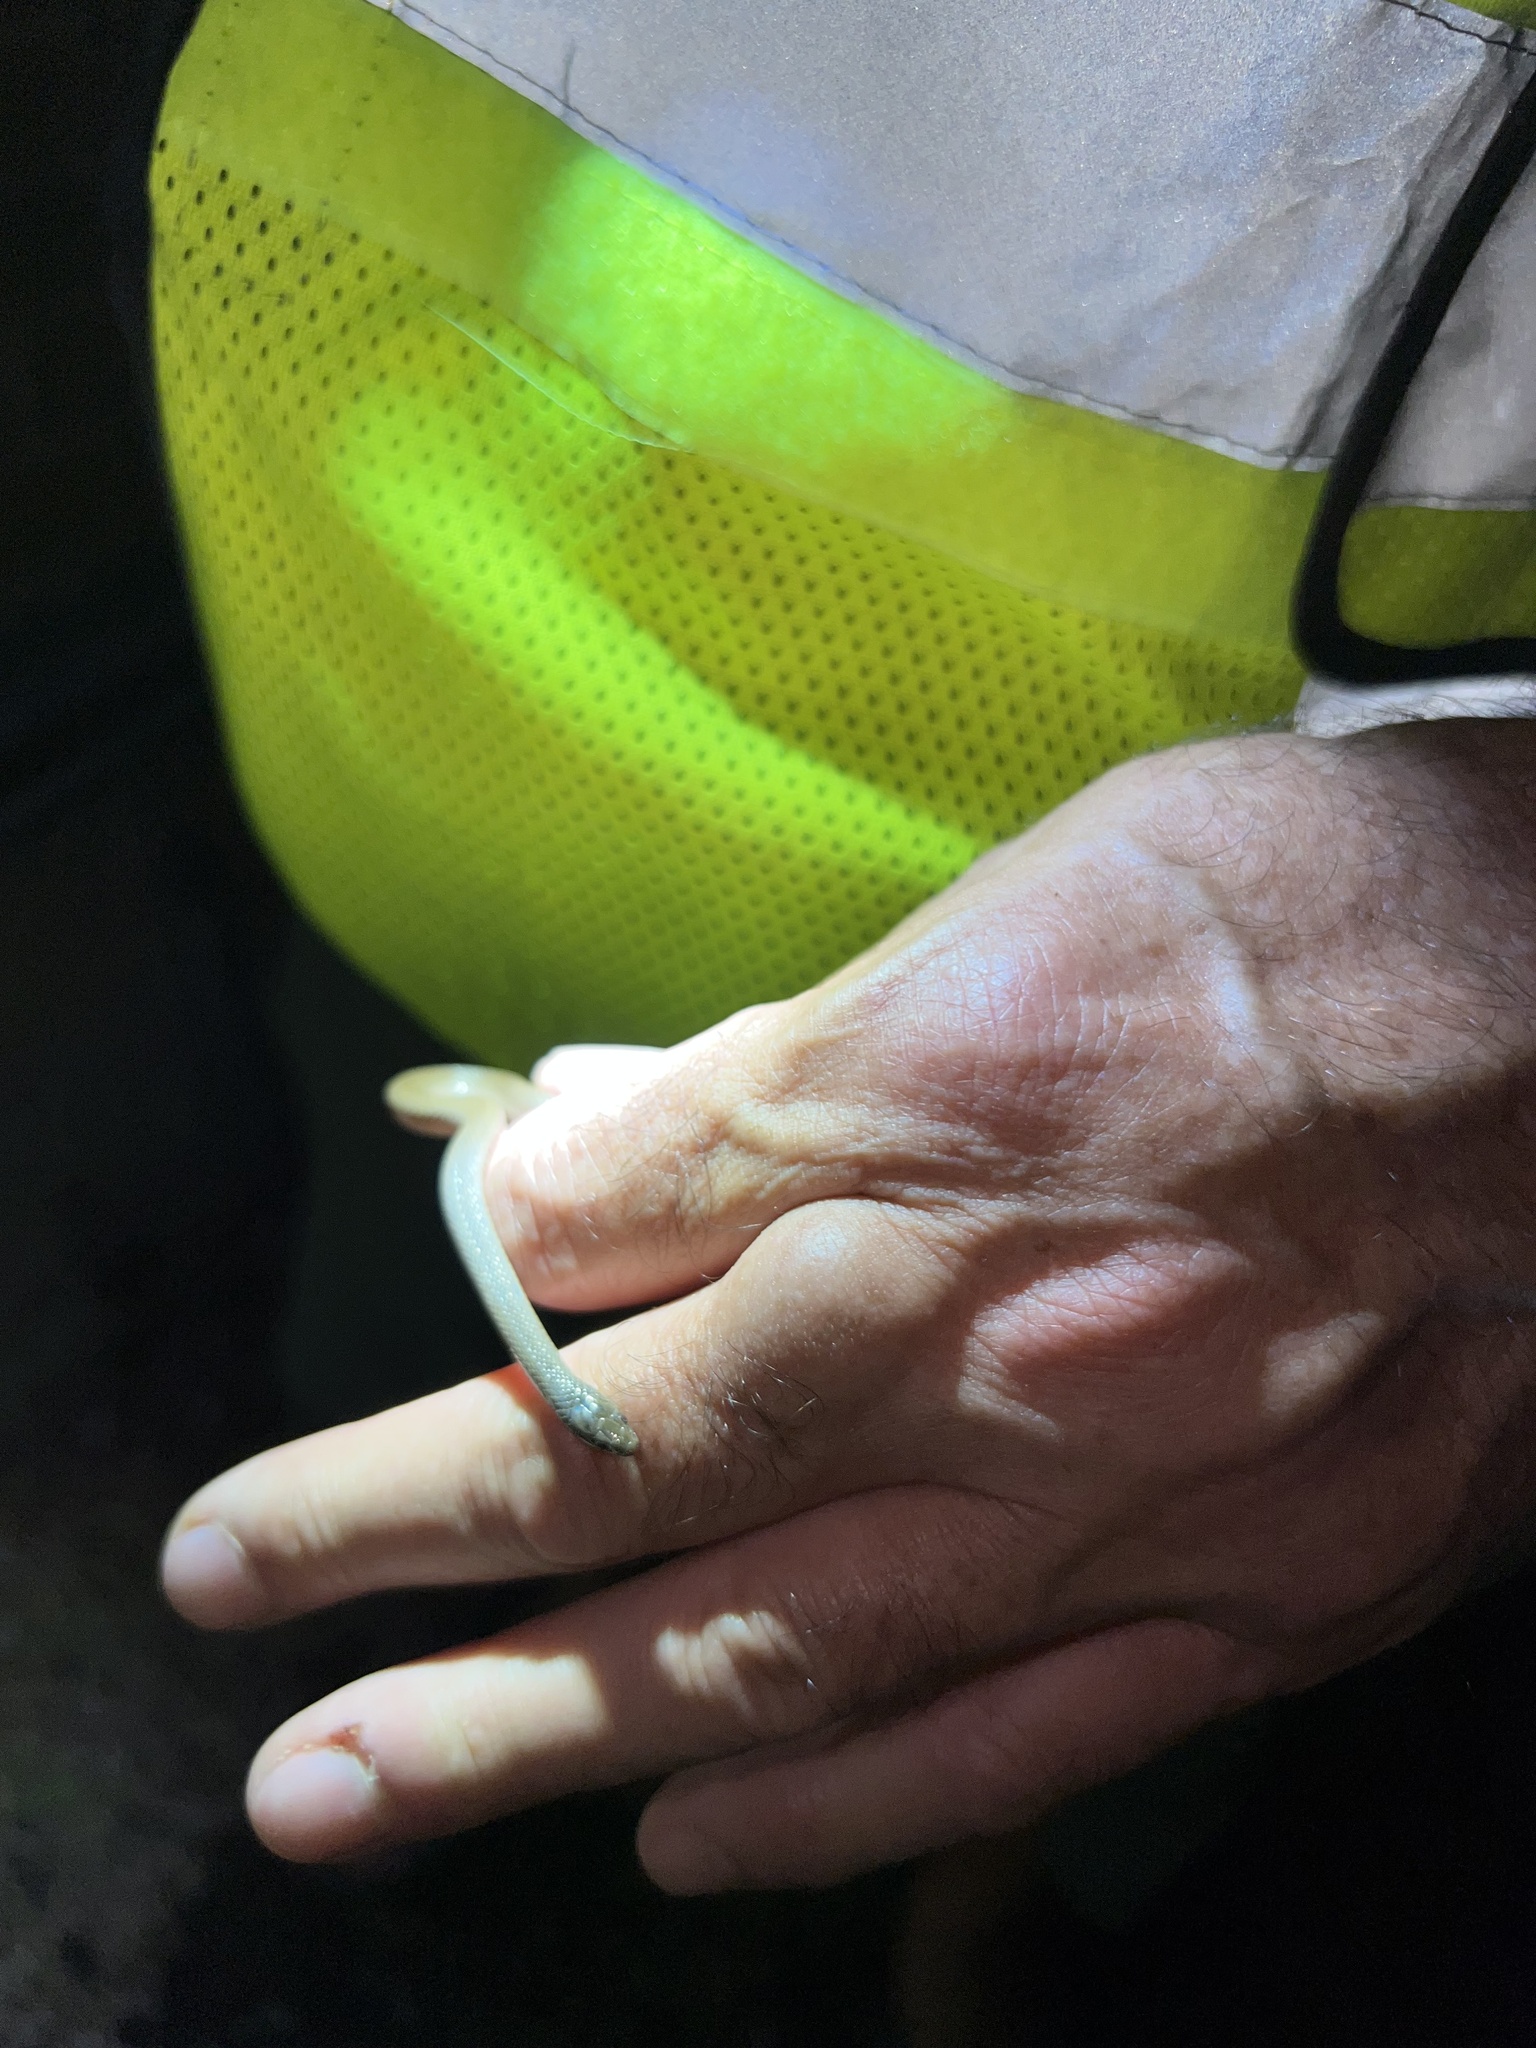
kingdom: Animalia
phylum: Chordata
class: Squamata
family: Colubridae
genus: Haldea
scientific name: Haldea striatula
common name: Rough earth snake
